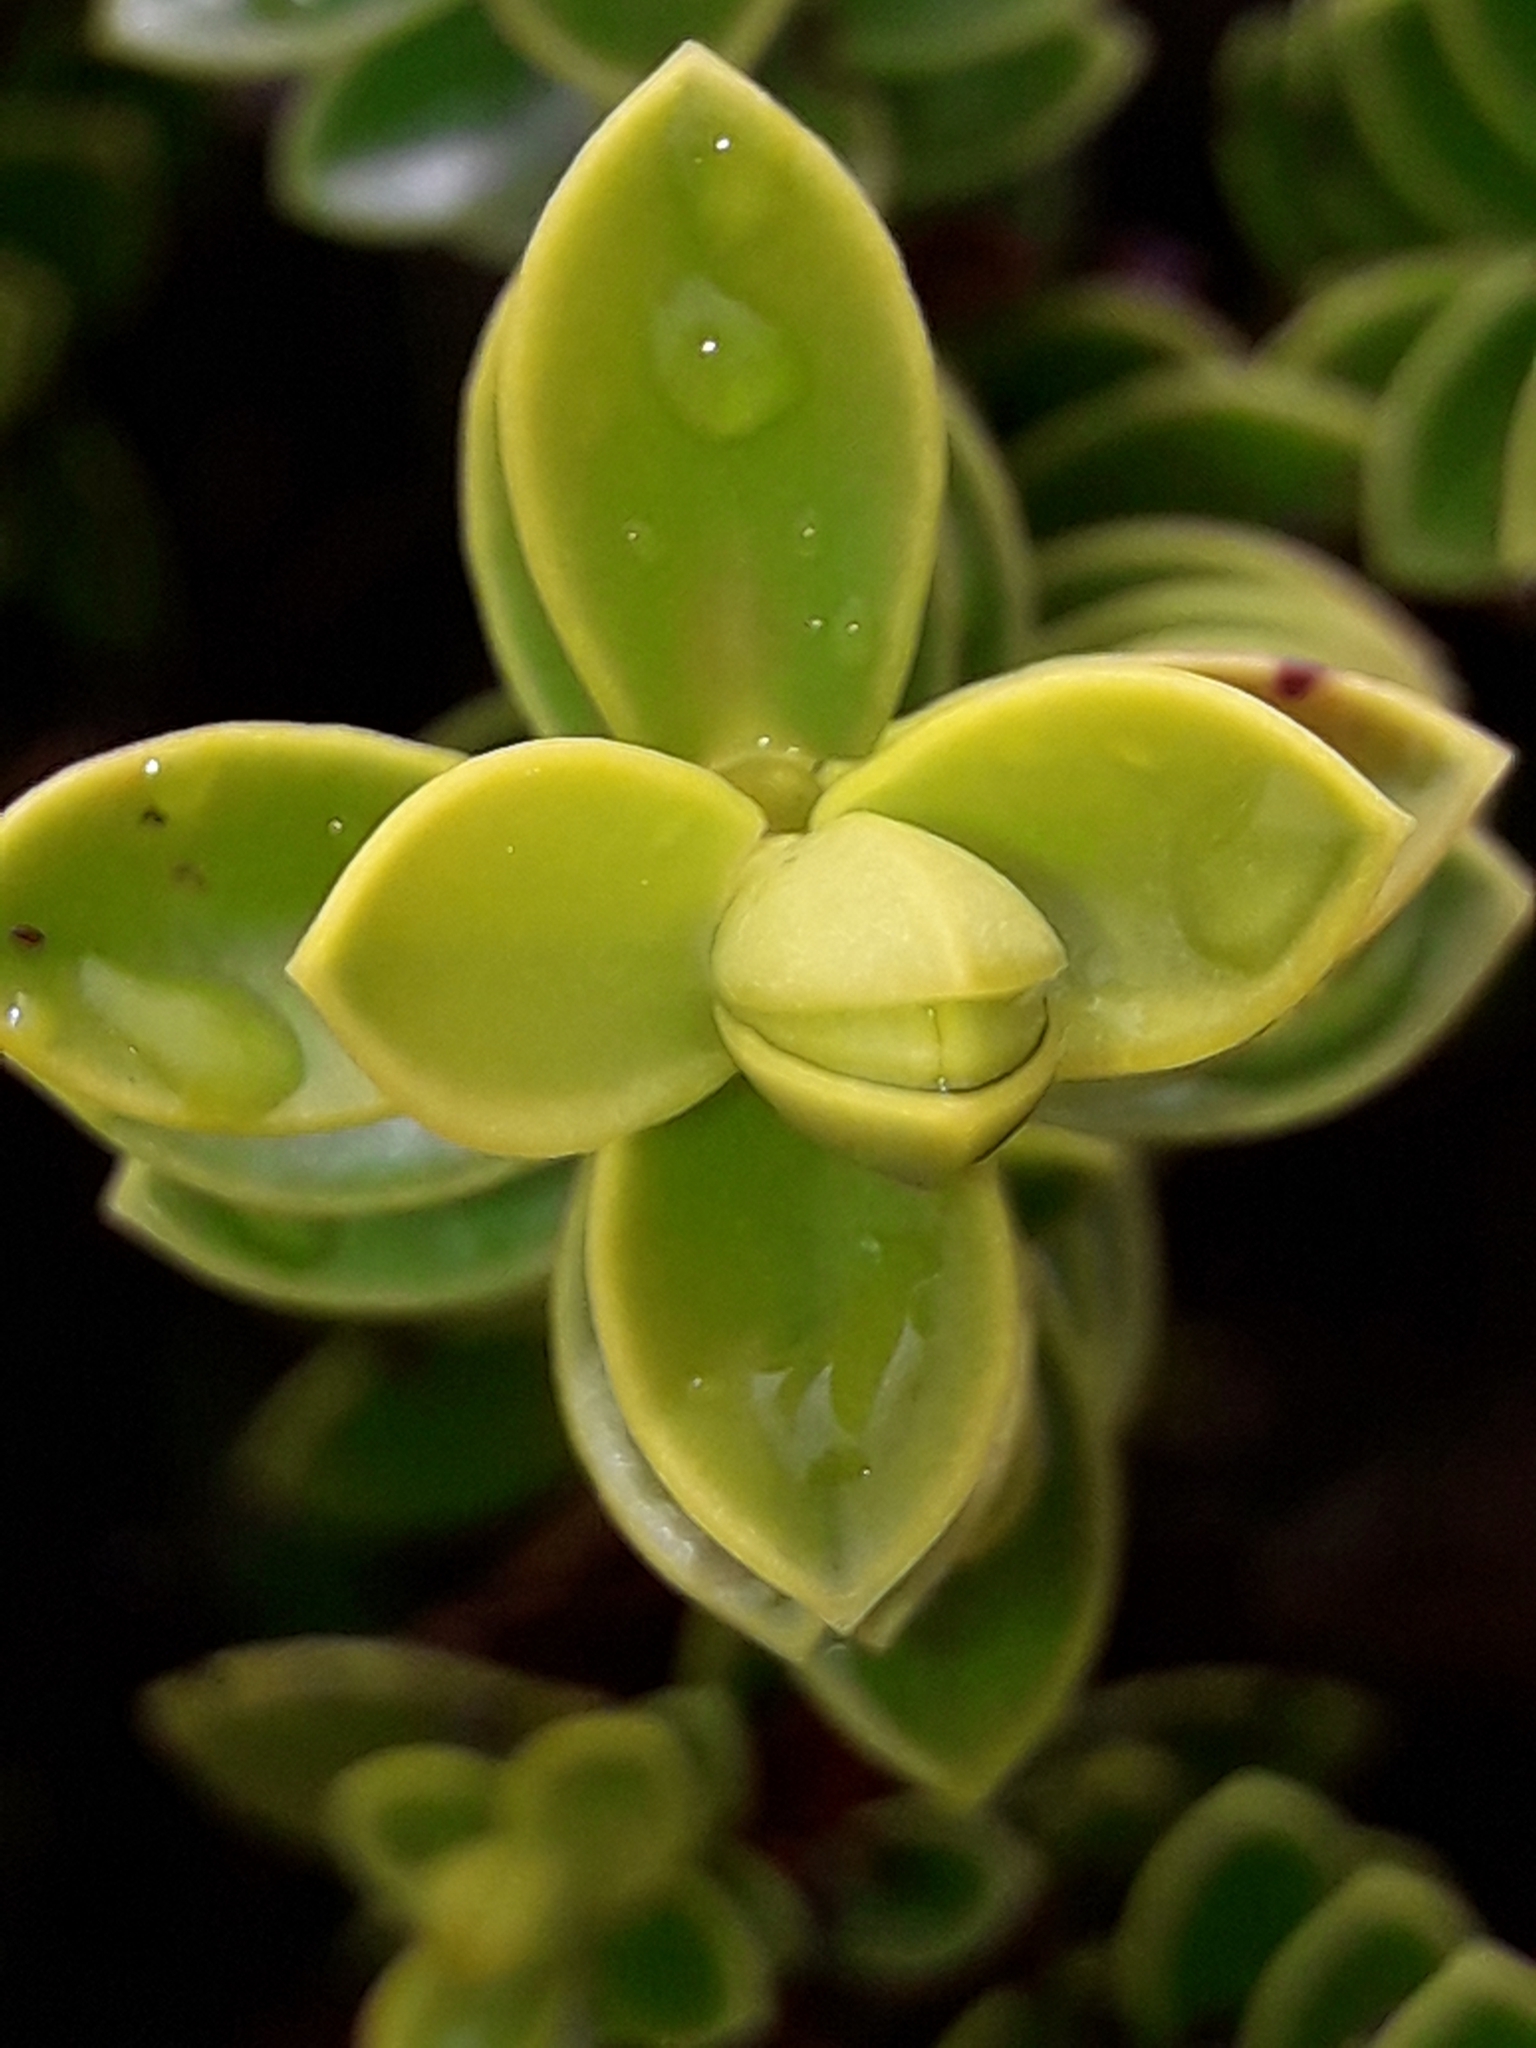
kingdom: Plantae
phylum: Tracheophyta
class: Magnoliopsida
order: Lamiales
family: Plantaginaceae
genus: Veronica
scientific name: Veronica odora
